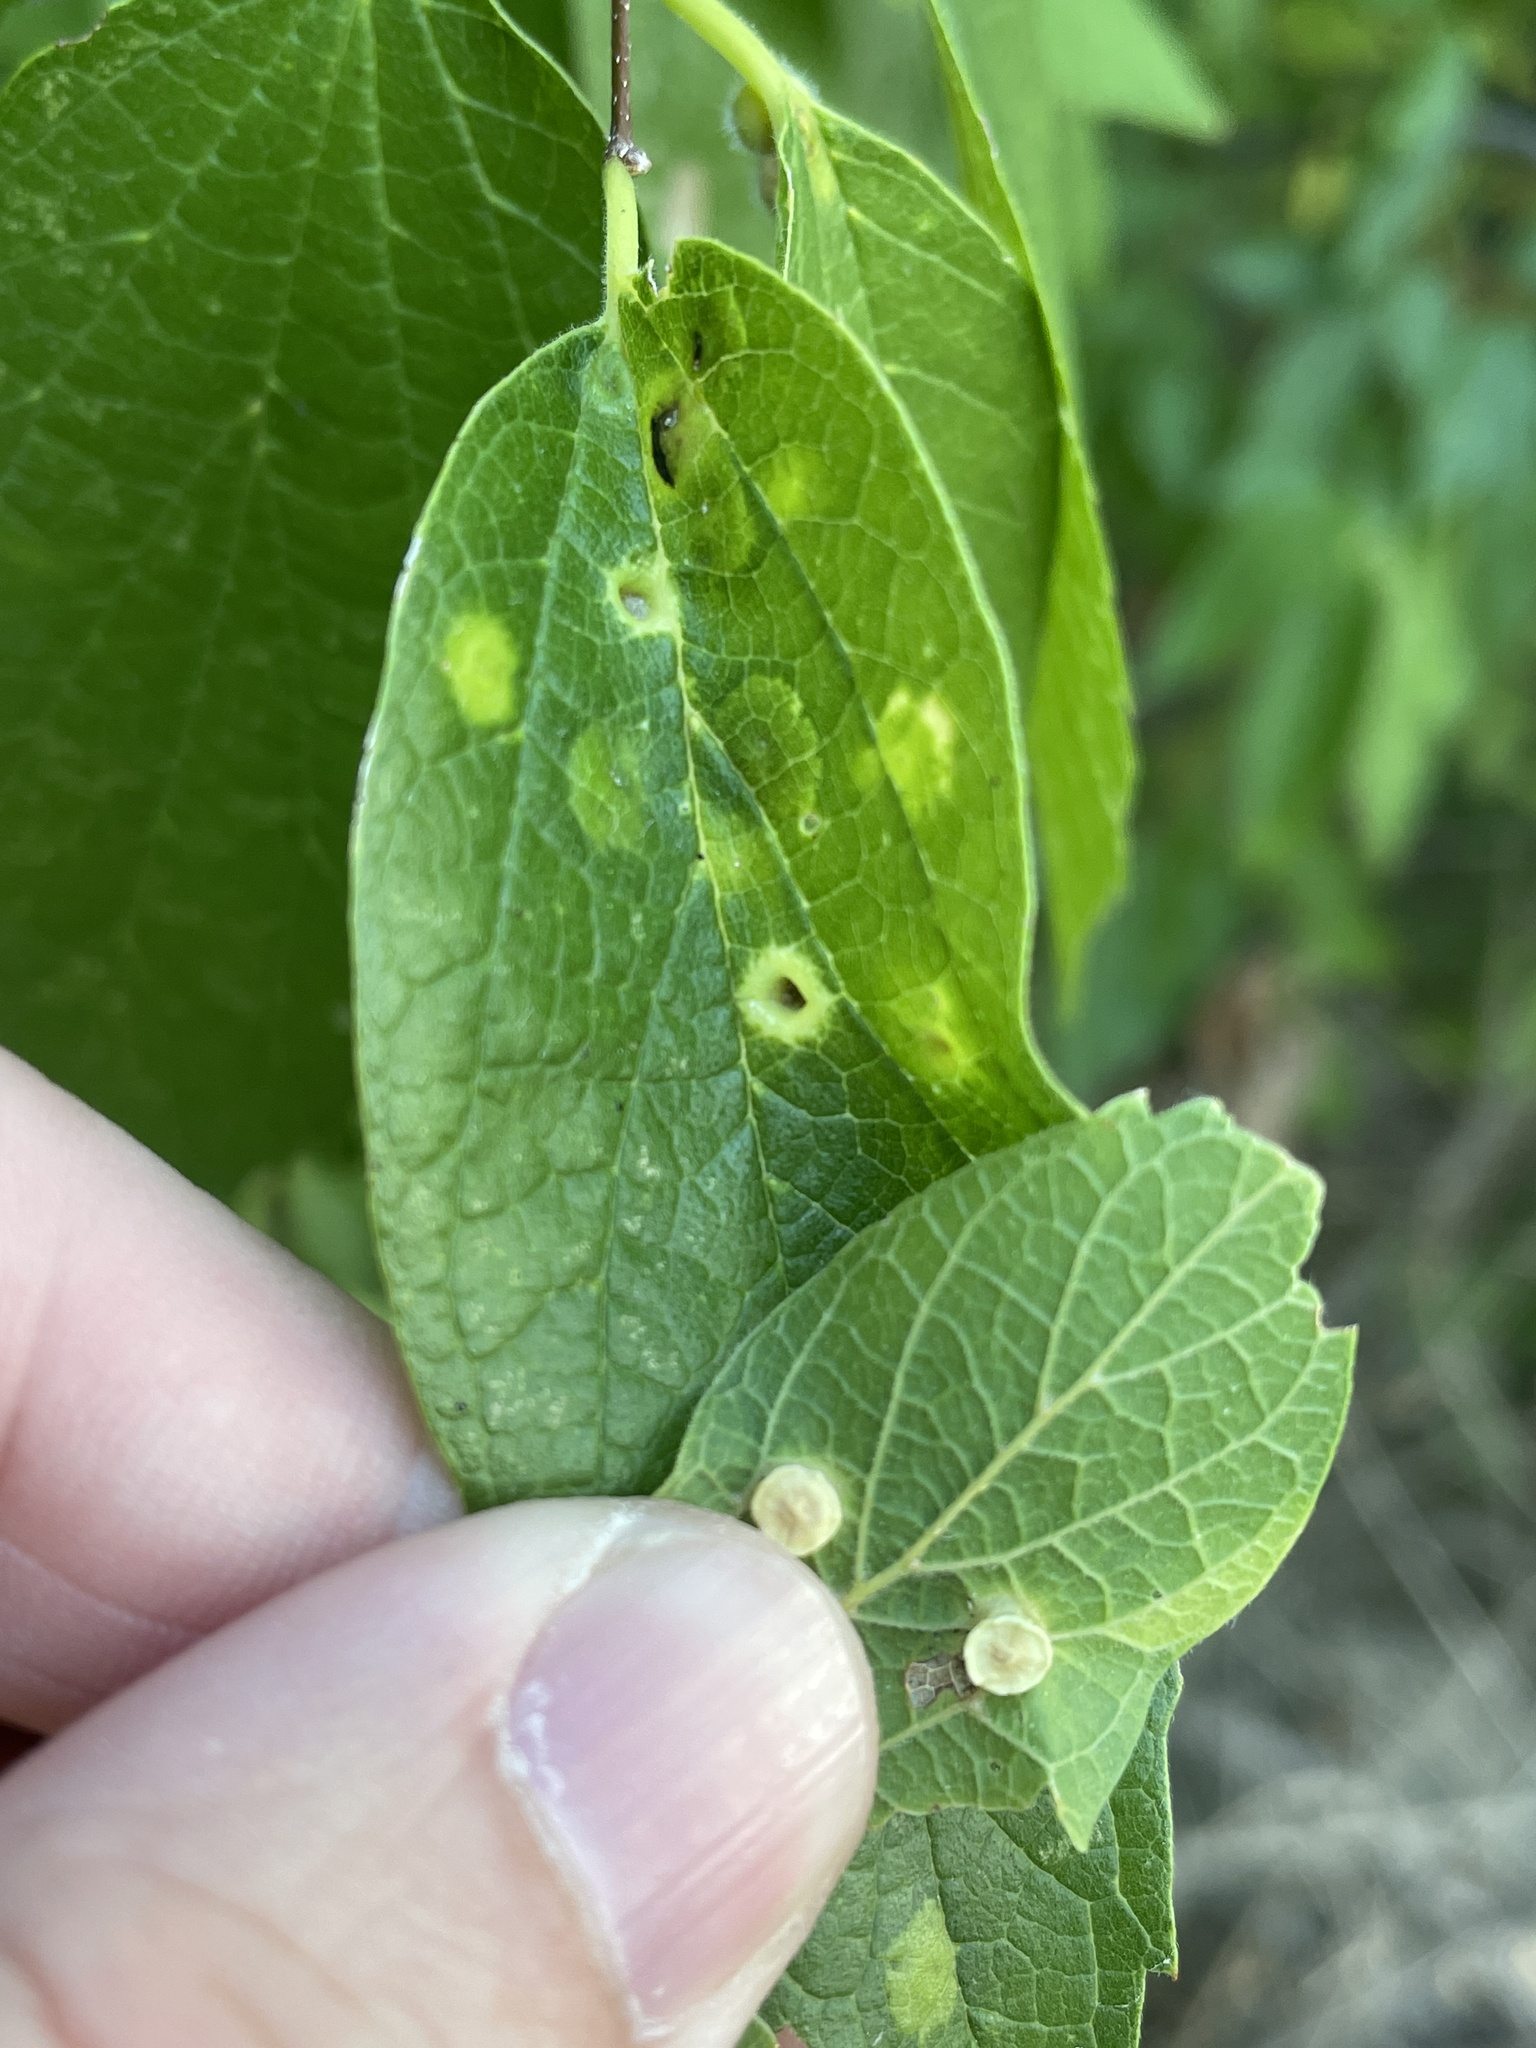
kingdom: Animalia
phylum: Arthropoda
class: Insecta
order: Hemiptera
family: Aphalaridae
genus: Pachypsylla
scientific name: Pachypsylla celtidismamma
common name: Hackberry nipplegall psyllid
